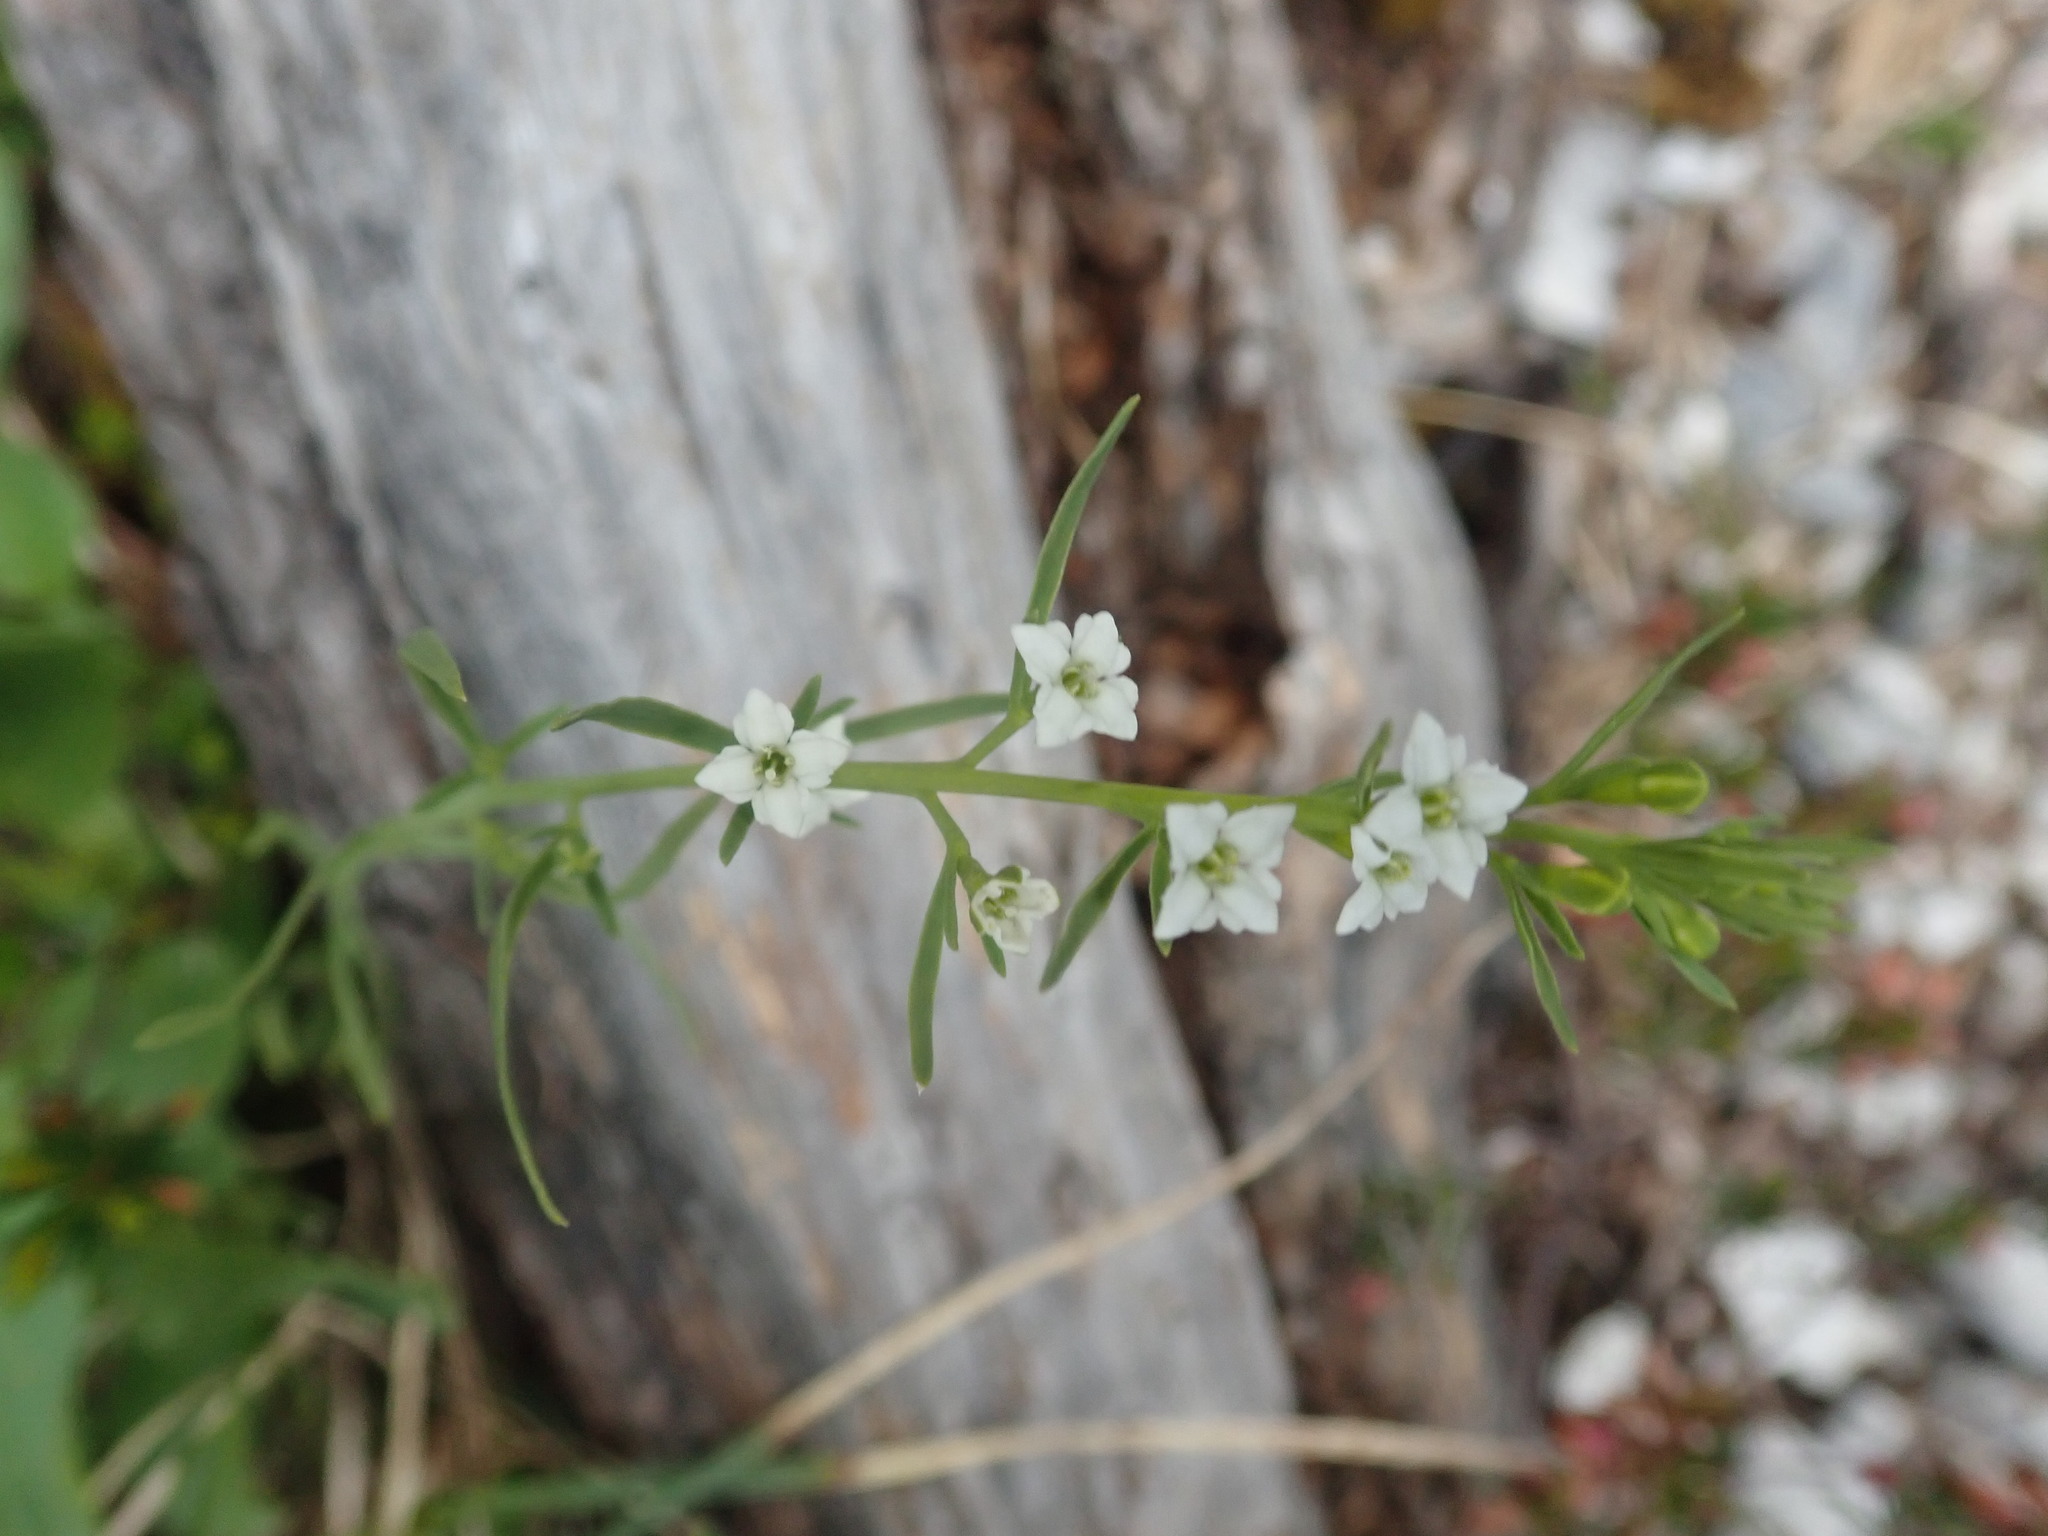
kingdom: Plantae
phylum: Tracheophyta
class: Magnoliopsida
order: Santalales
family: Thesiaceae
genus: Thesium
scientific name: Thesium alpinum
